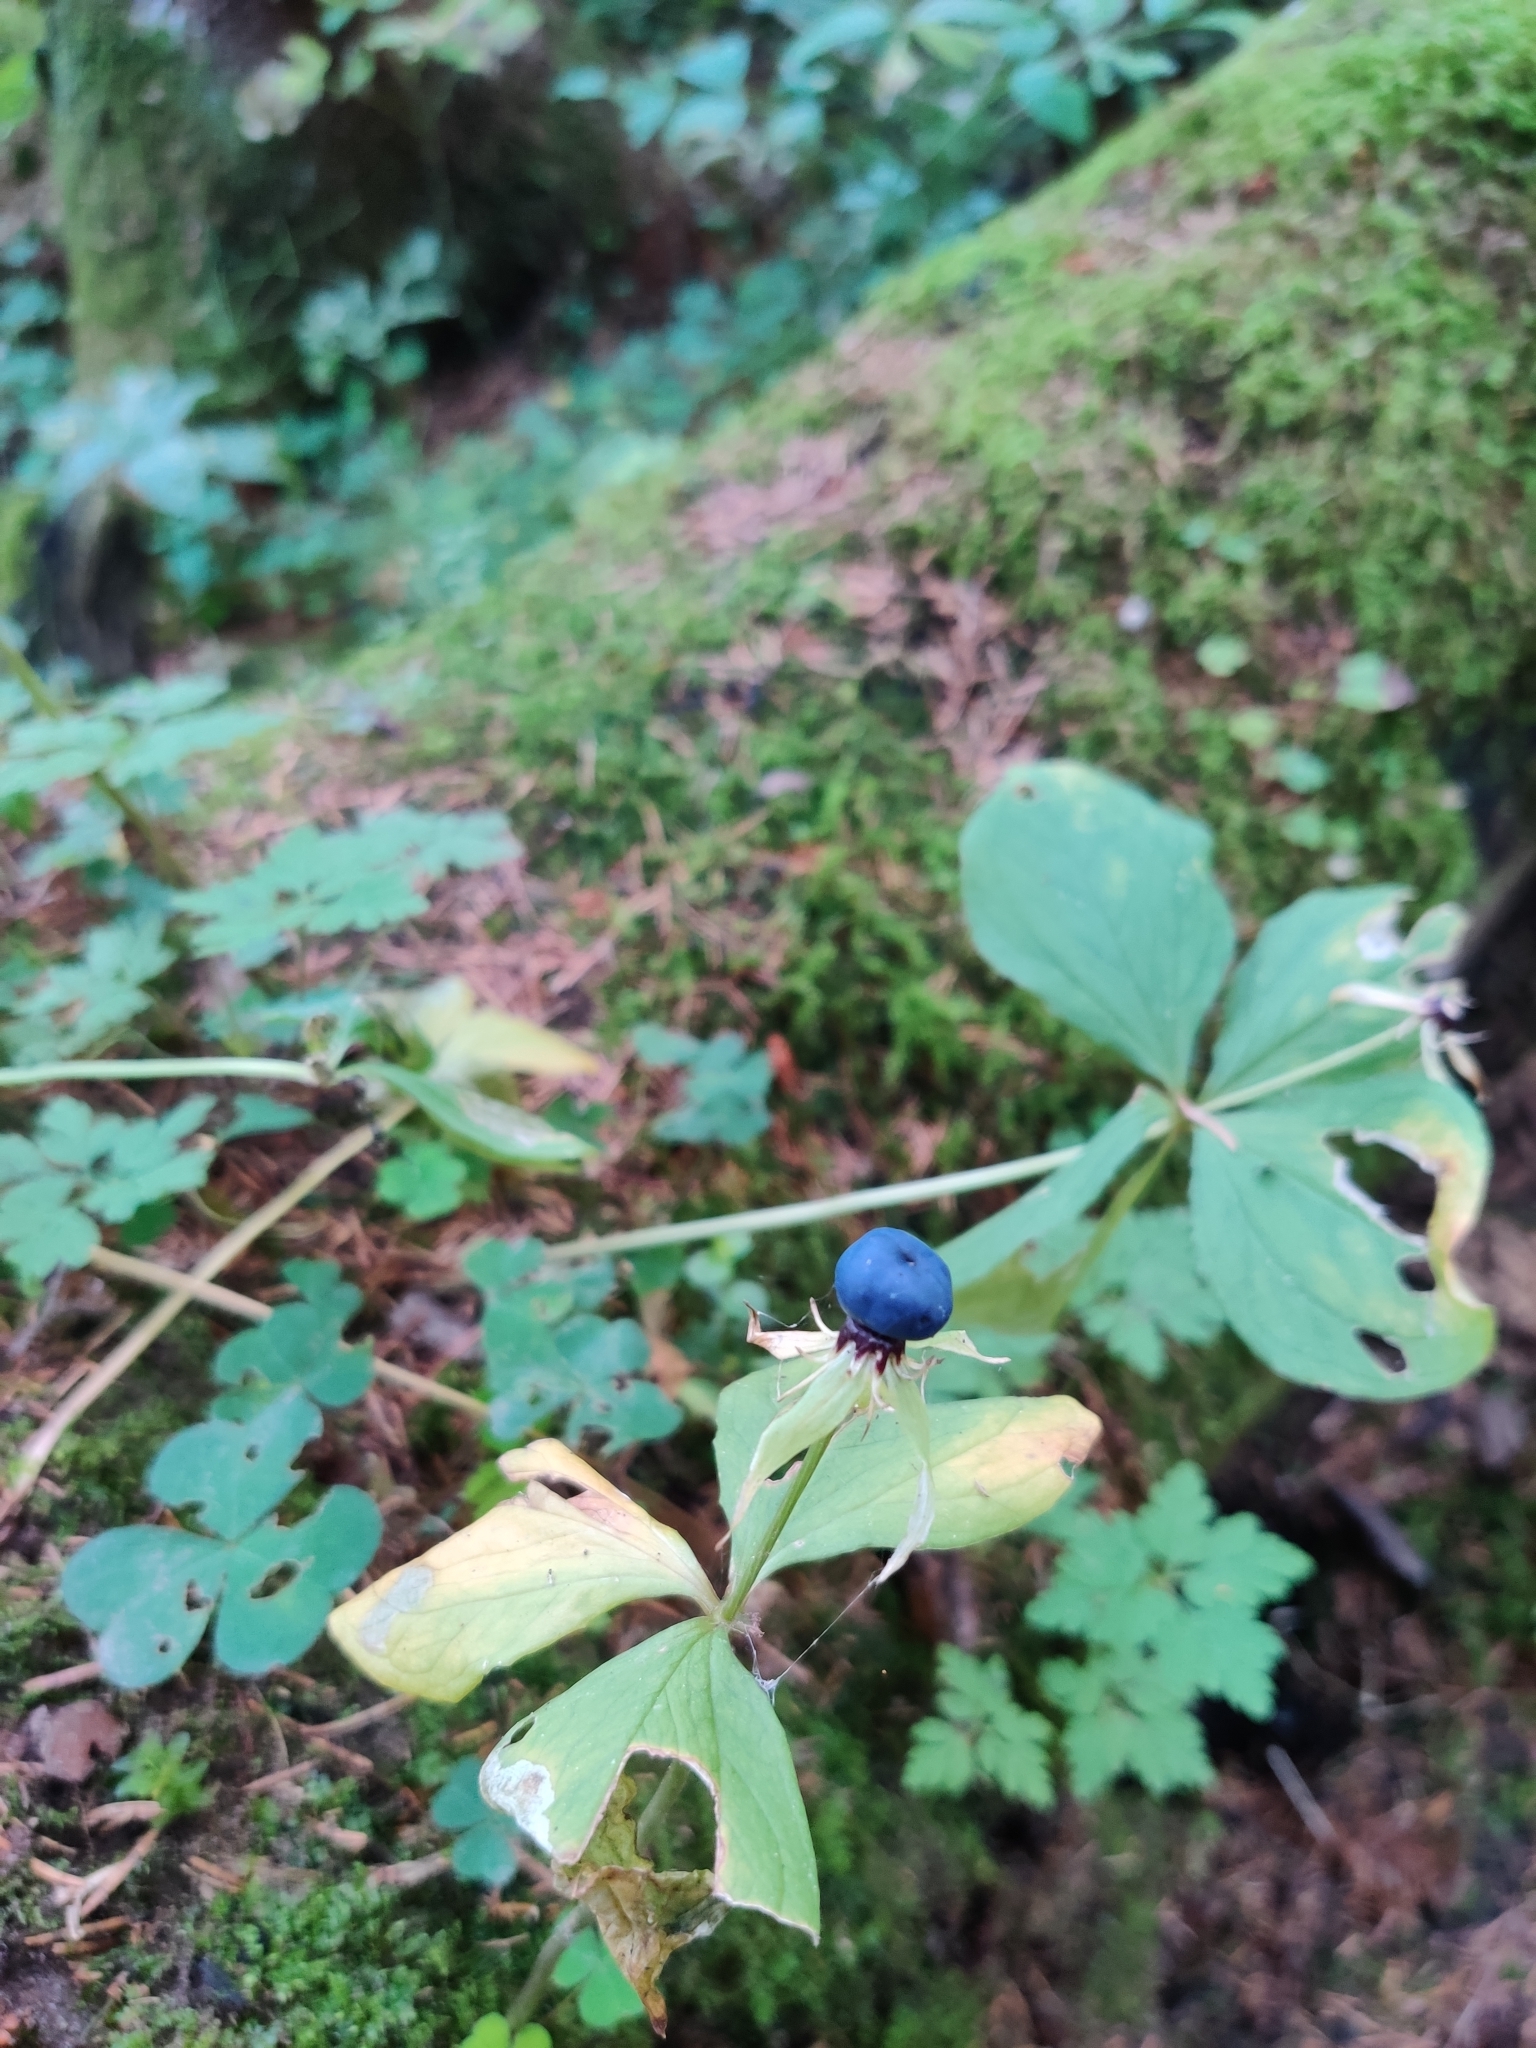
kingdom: Plantae
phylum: Tracheophyta
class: Liliopsida
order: Liliales
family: Melanthiaceae
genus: Paris
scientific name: Paris quadrifolia
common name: Herb-paris
